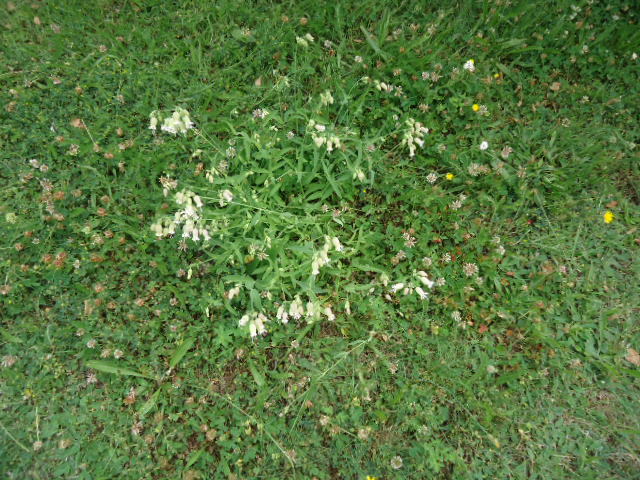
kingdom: Plantae
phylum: Tracheophyta
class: Magnoliopsida
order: Caryophyllales
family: Caryophyllaceae
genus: Silene
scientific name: Silene vulgaris
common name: Bladder campion
